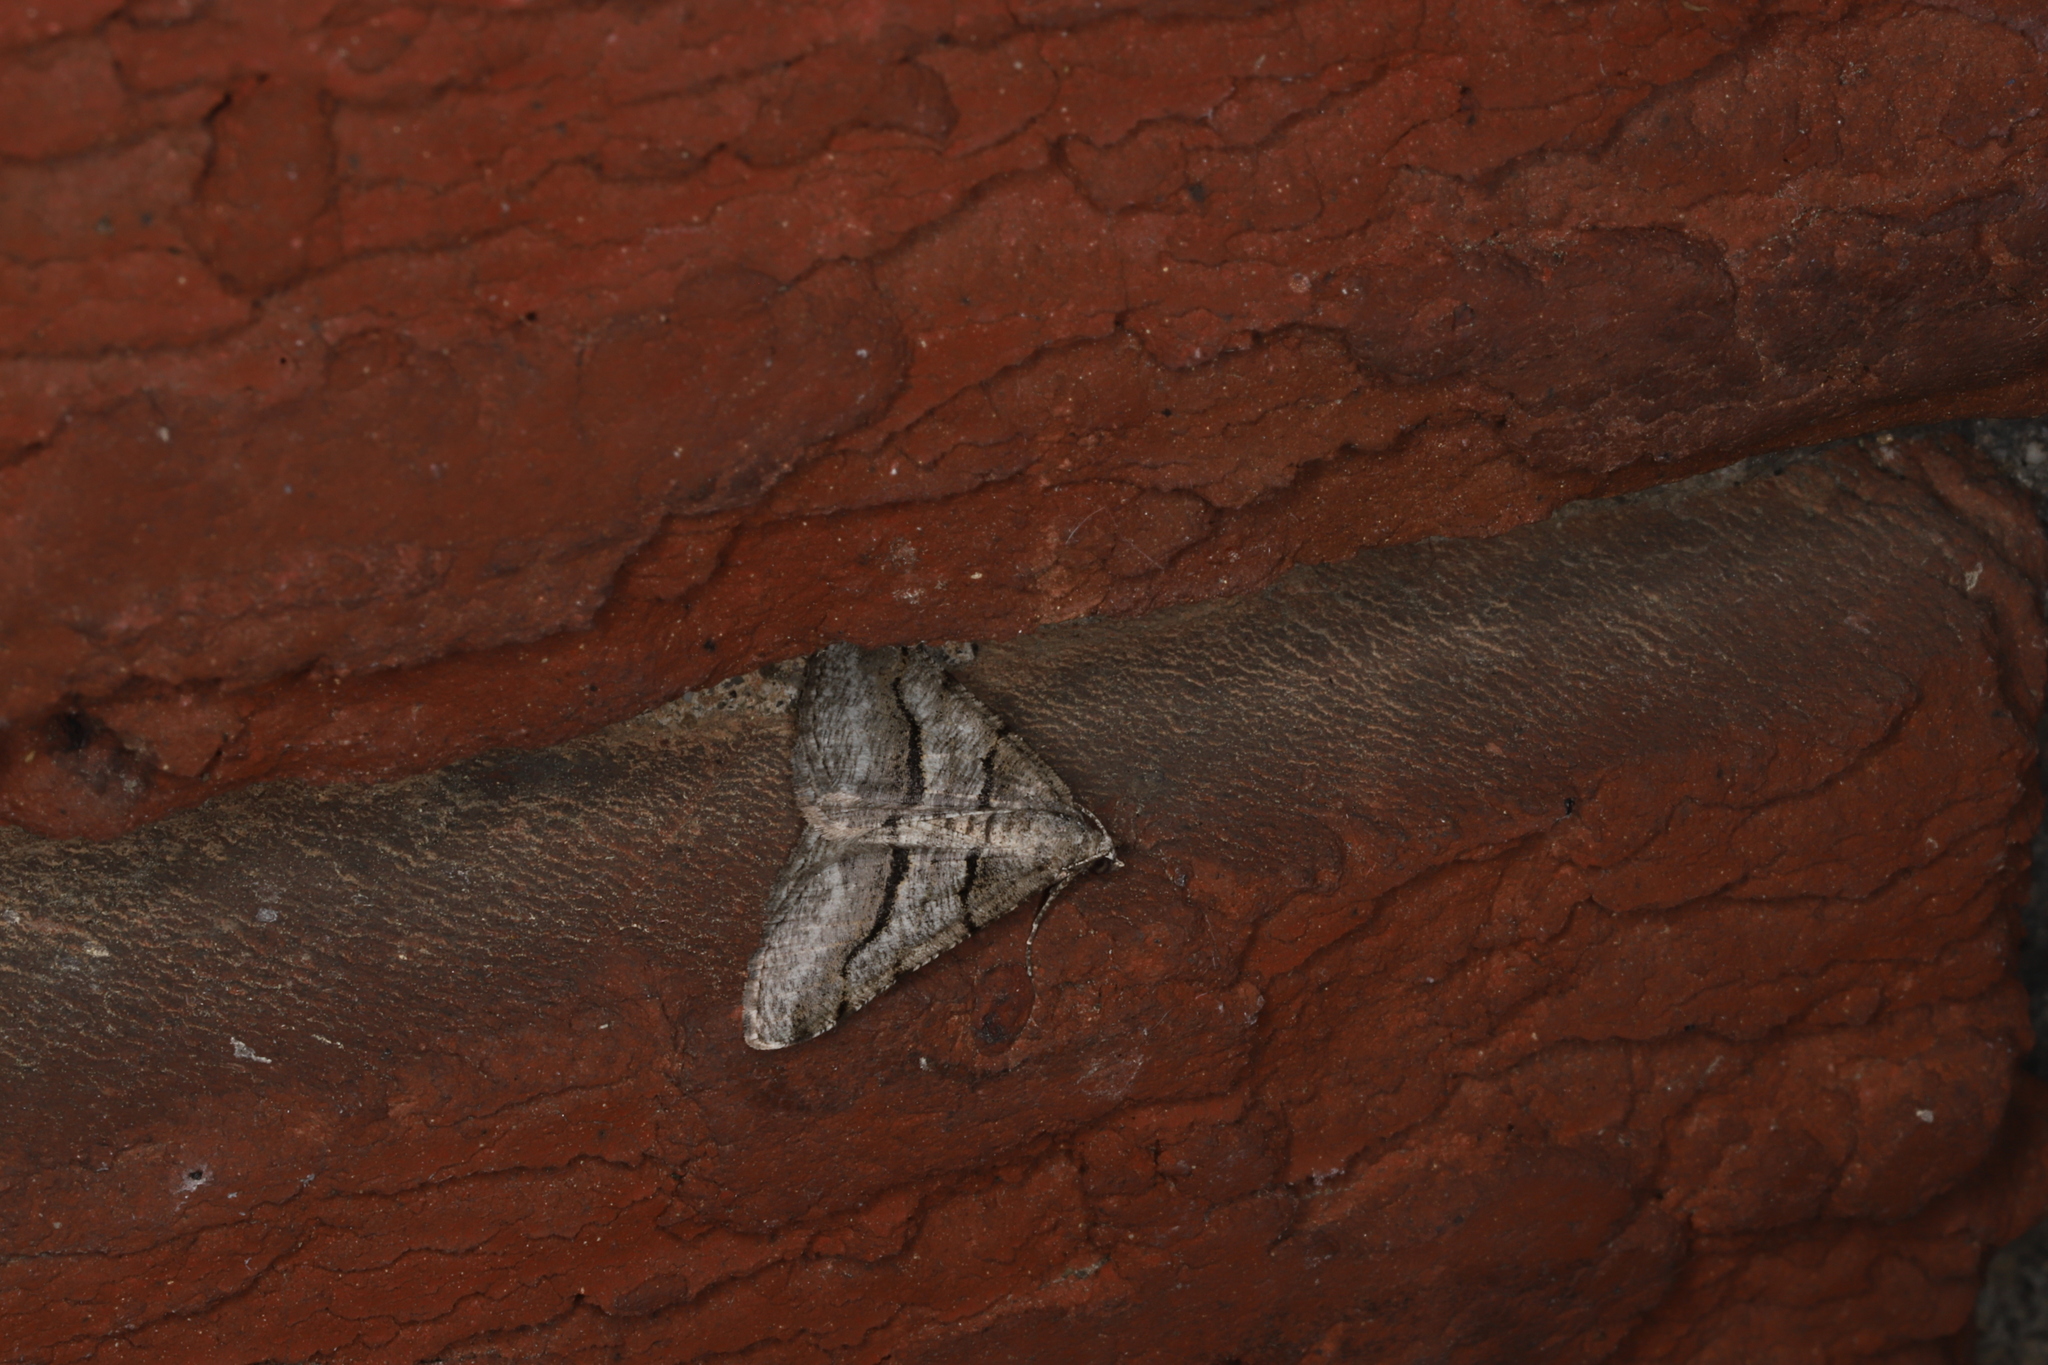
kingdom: Animalia
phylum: Arthropoda
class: Insecta
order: Lepidoptera
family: Geometridae
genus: Digrammia
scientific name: Digrammia continuata
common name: Curve-lined angle
